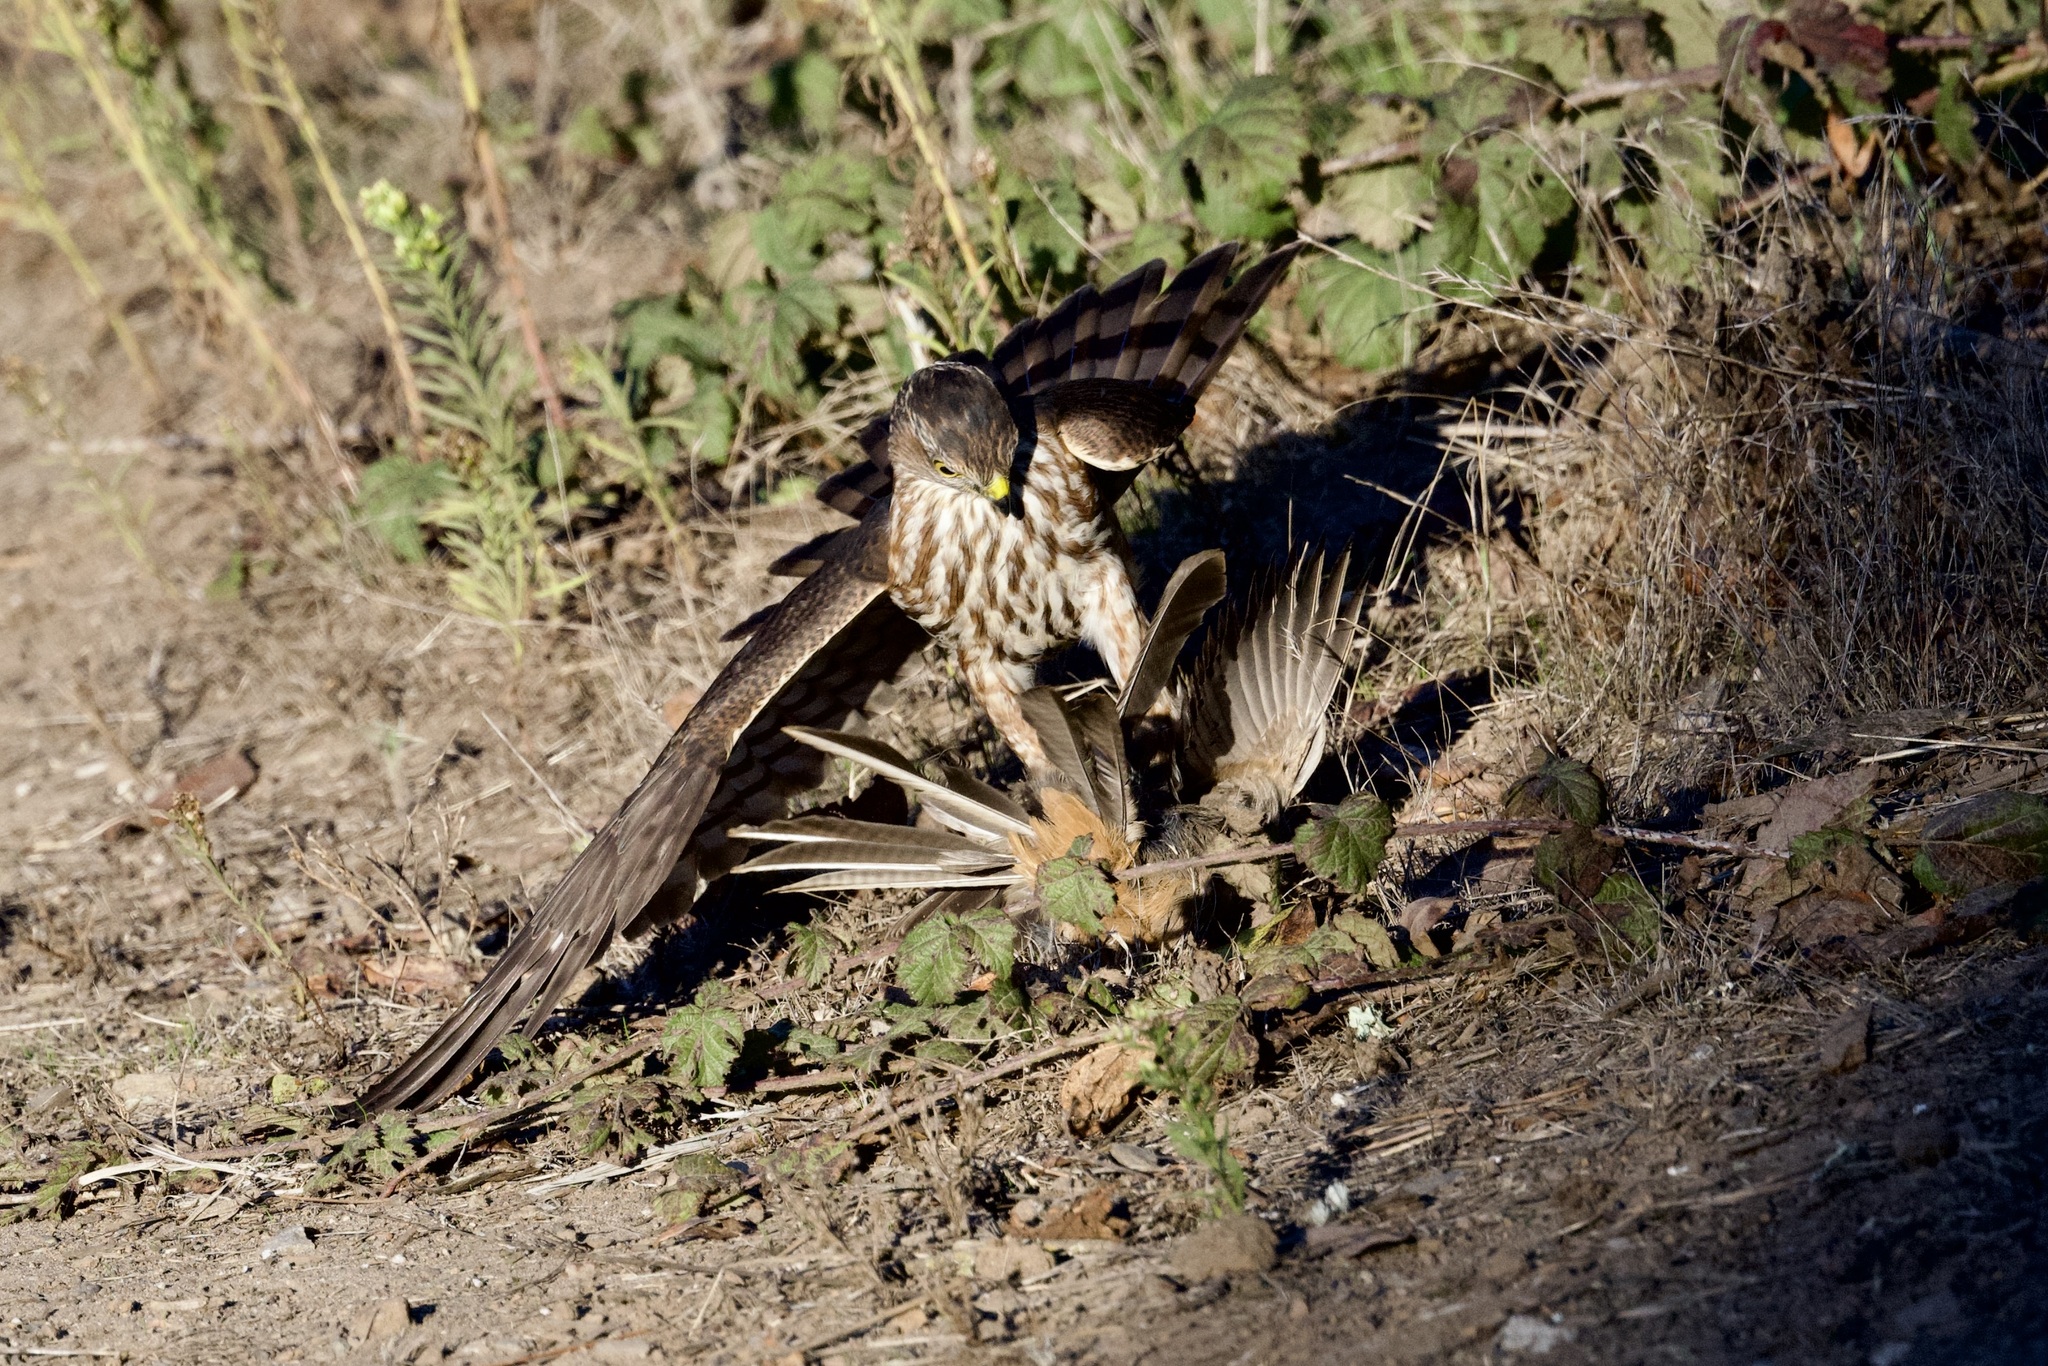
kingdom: Animalia
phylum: Chordata
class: Aves
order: Accipitriformes
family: Accipitridae
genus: Accipiter
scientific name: Accipiter striatus
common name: Sharp-shinned hawk
